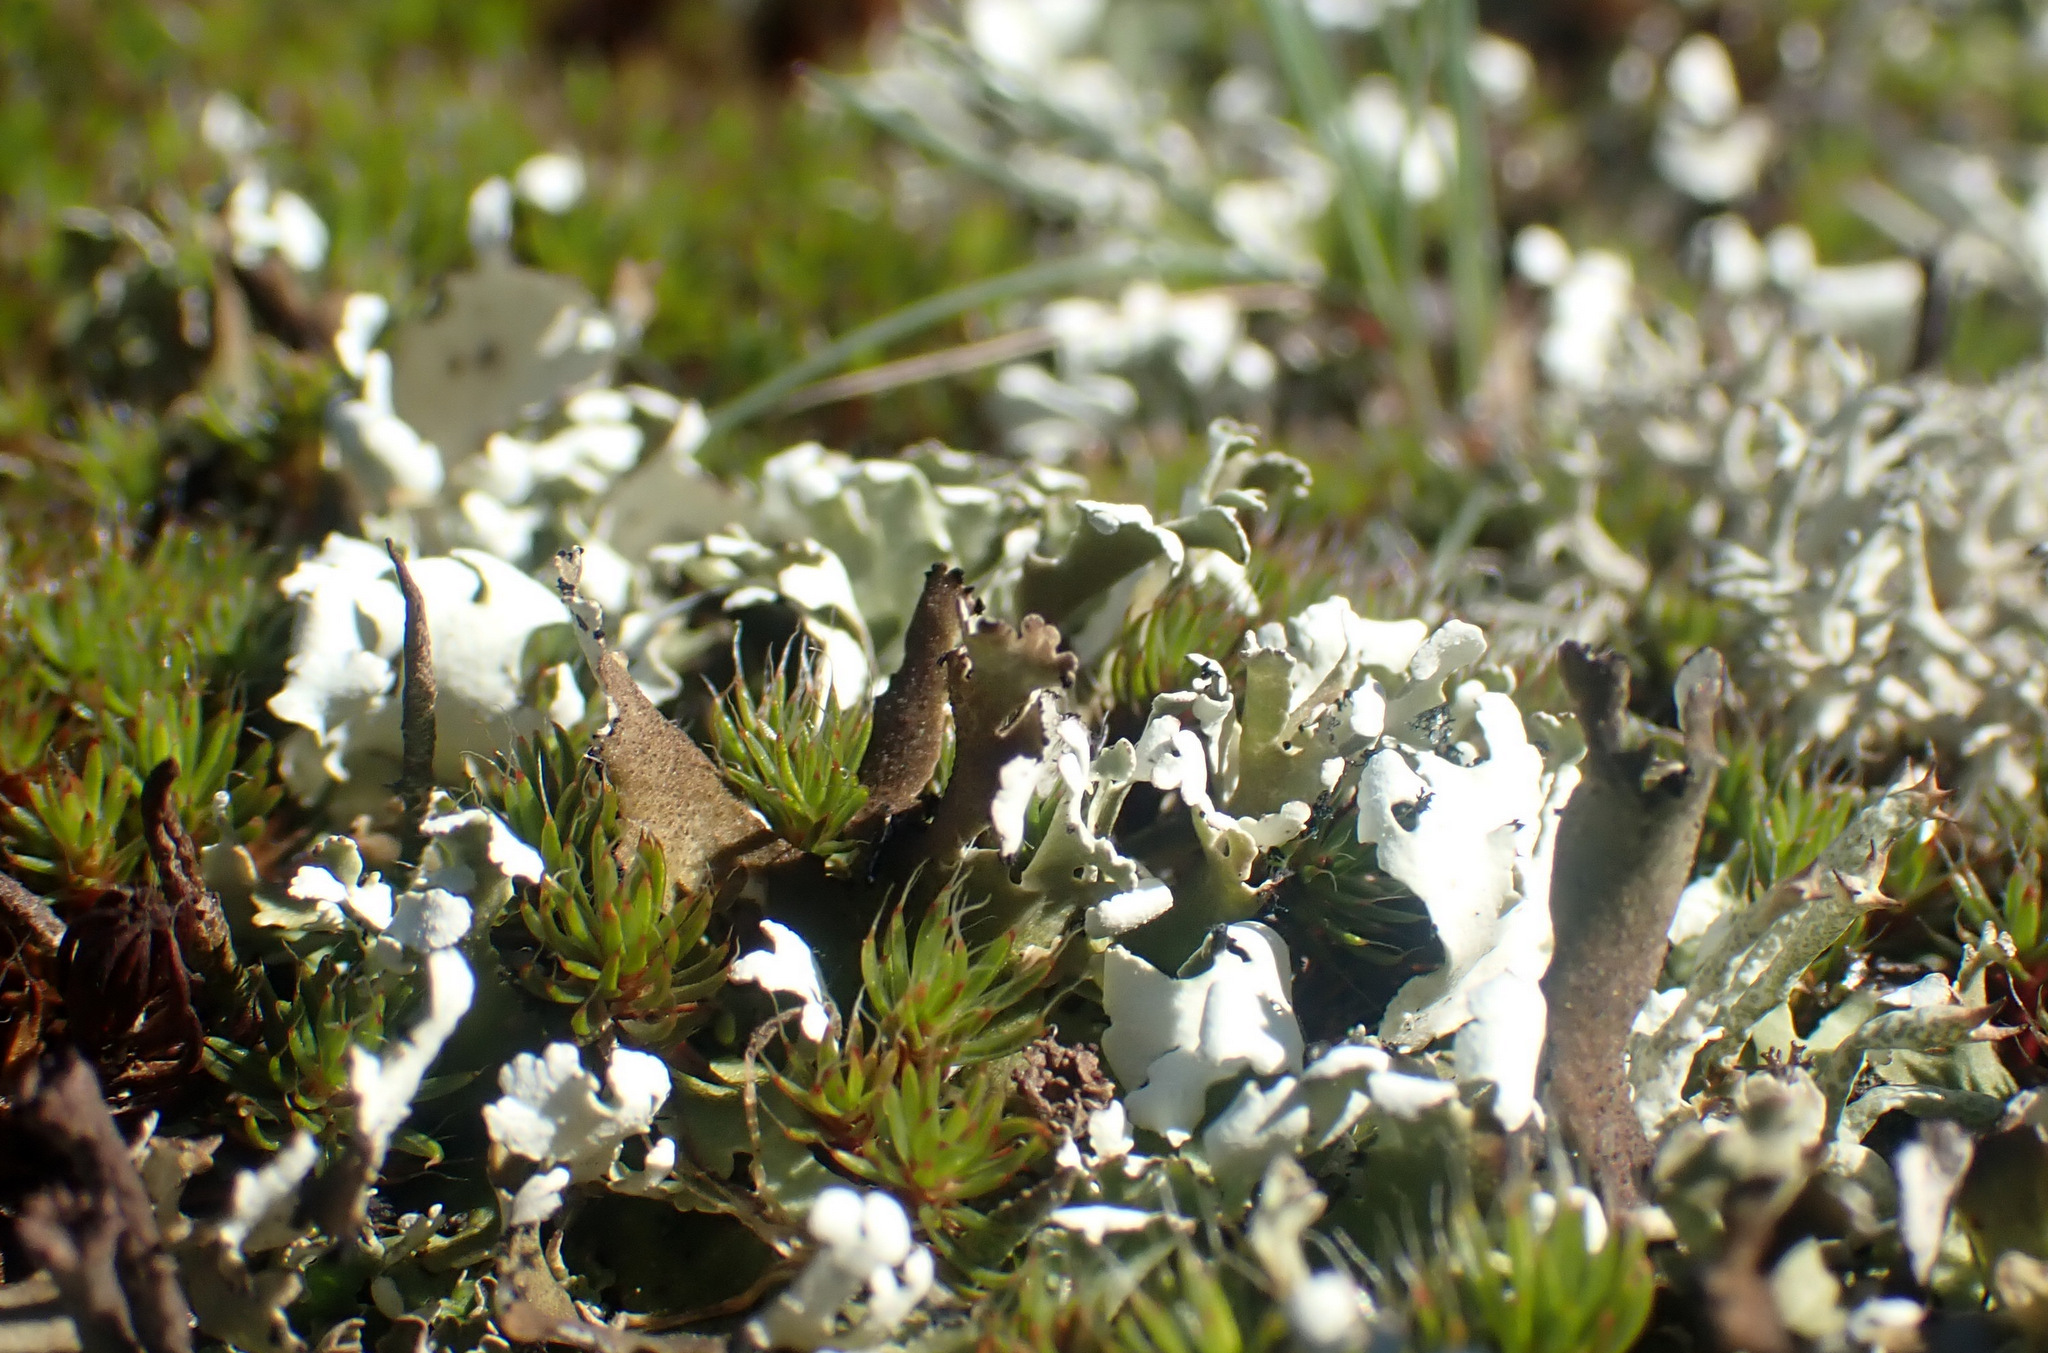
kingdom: Fungi
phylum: Ascomycota
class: Lecanoromycetes
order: Lecanorales
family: Cladoniaceae
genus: Cladonia
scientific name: Cladonia foliacea
